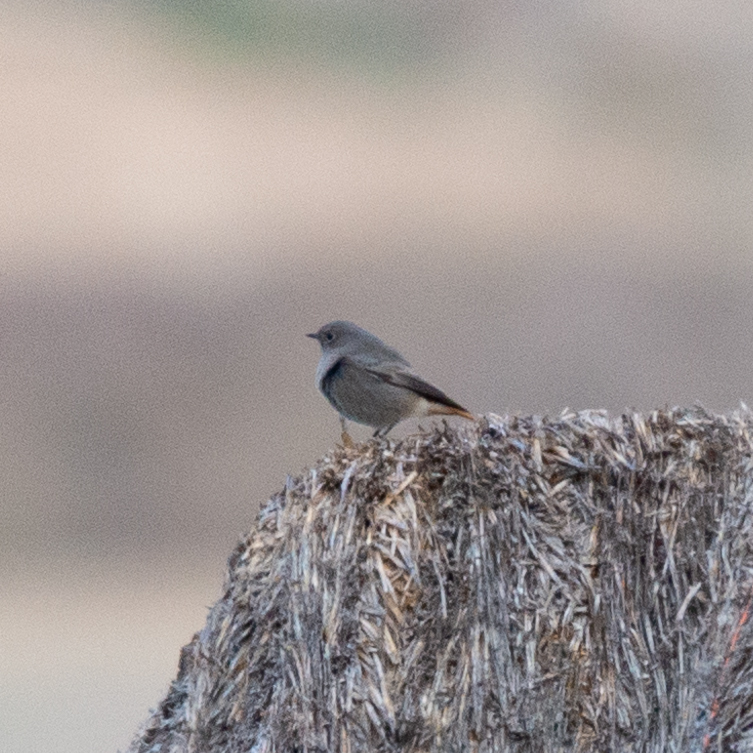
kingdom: Animalia
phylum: Chordata
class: Aves
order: Passeriformes
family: Muscicapidae
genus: Phoenicurus
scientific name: Phoenicurus ochruros
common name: Black redstart
